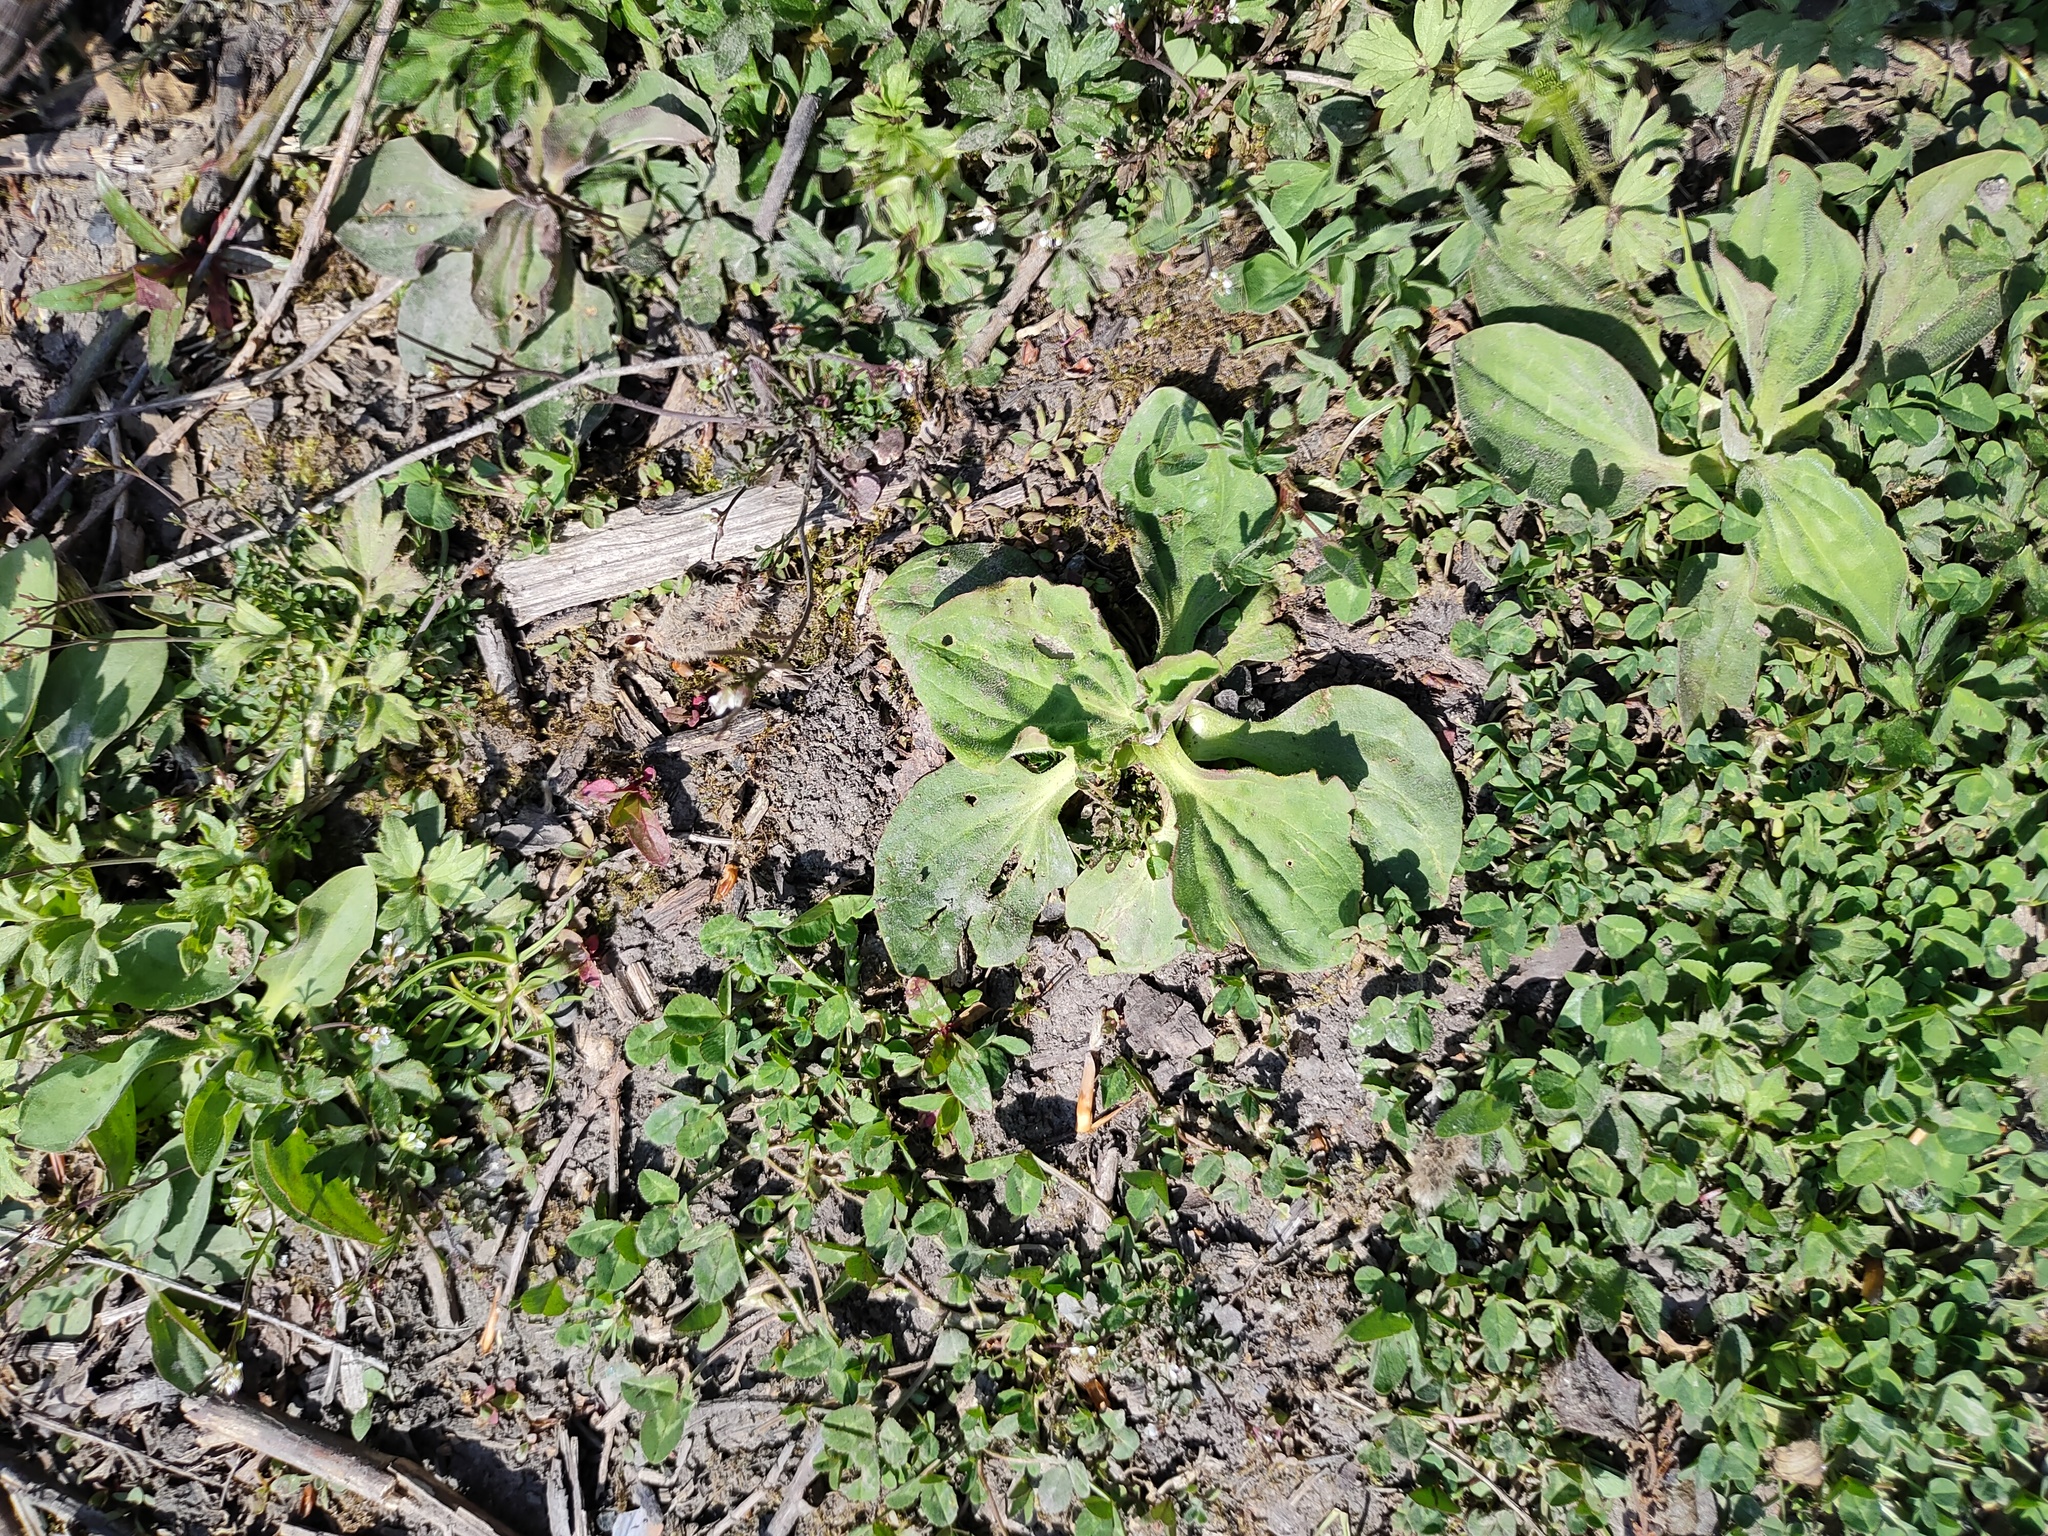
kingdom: Plantae
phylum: Tracheophyta
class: Magnoliopsida
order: Lamiales
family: Plantaginaceae
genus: Plantago
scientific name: Plantago major
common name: Common plantain
